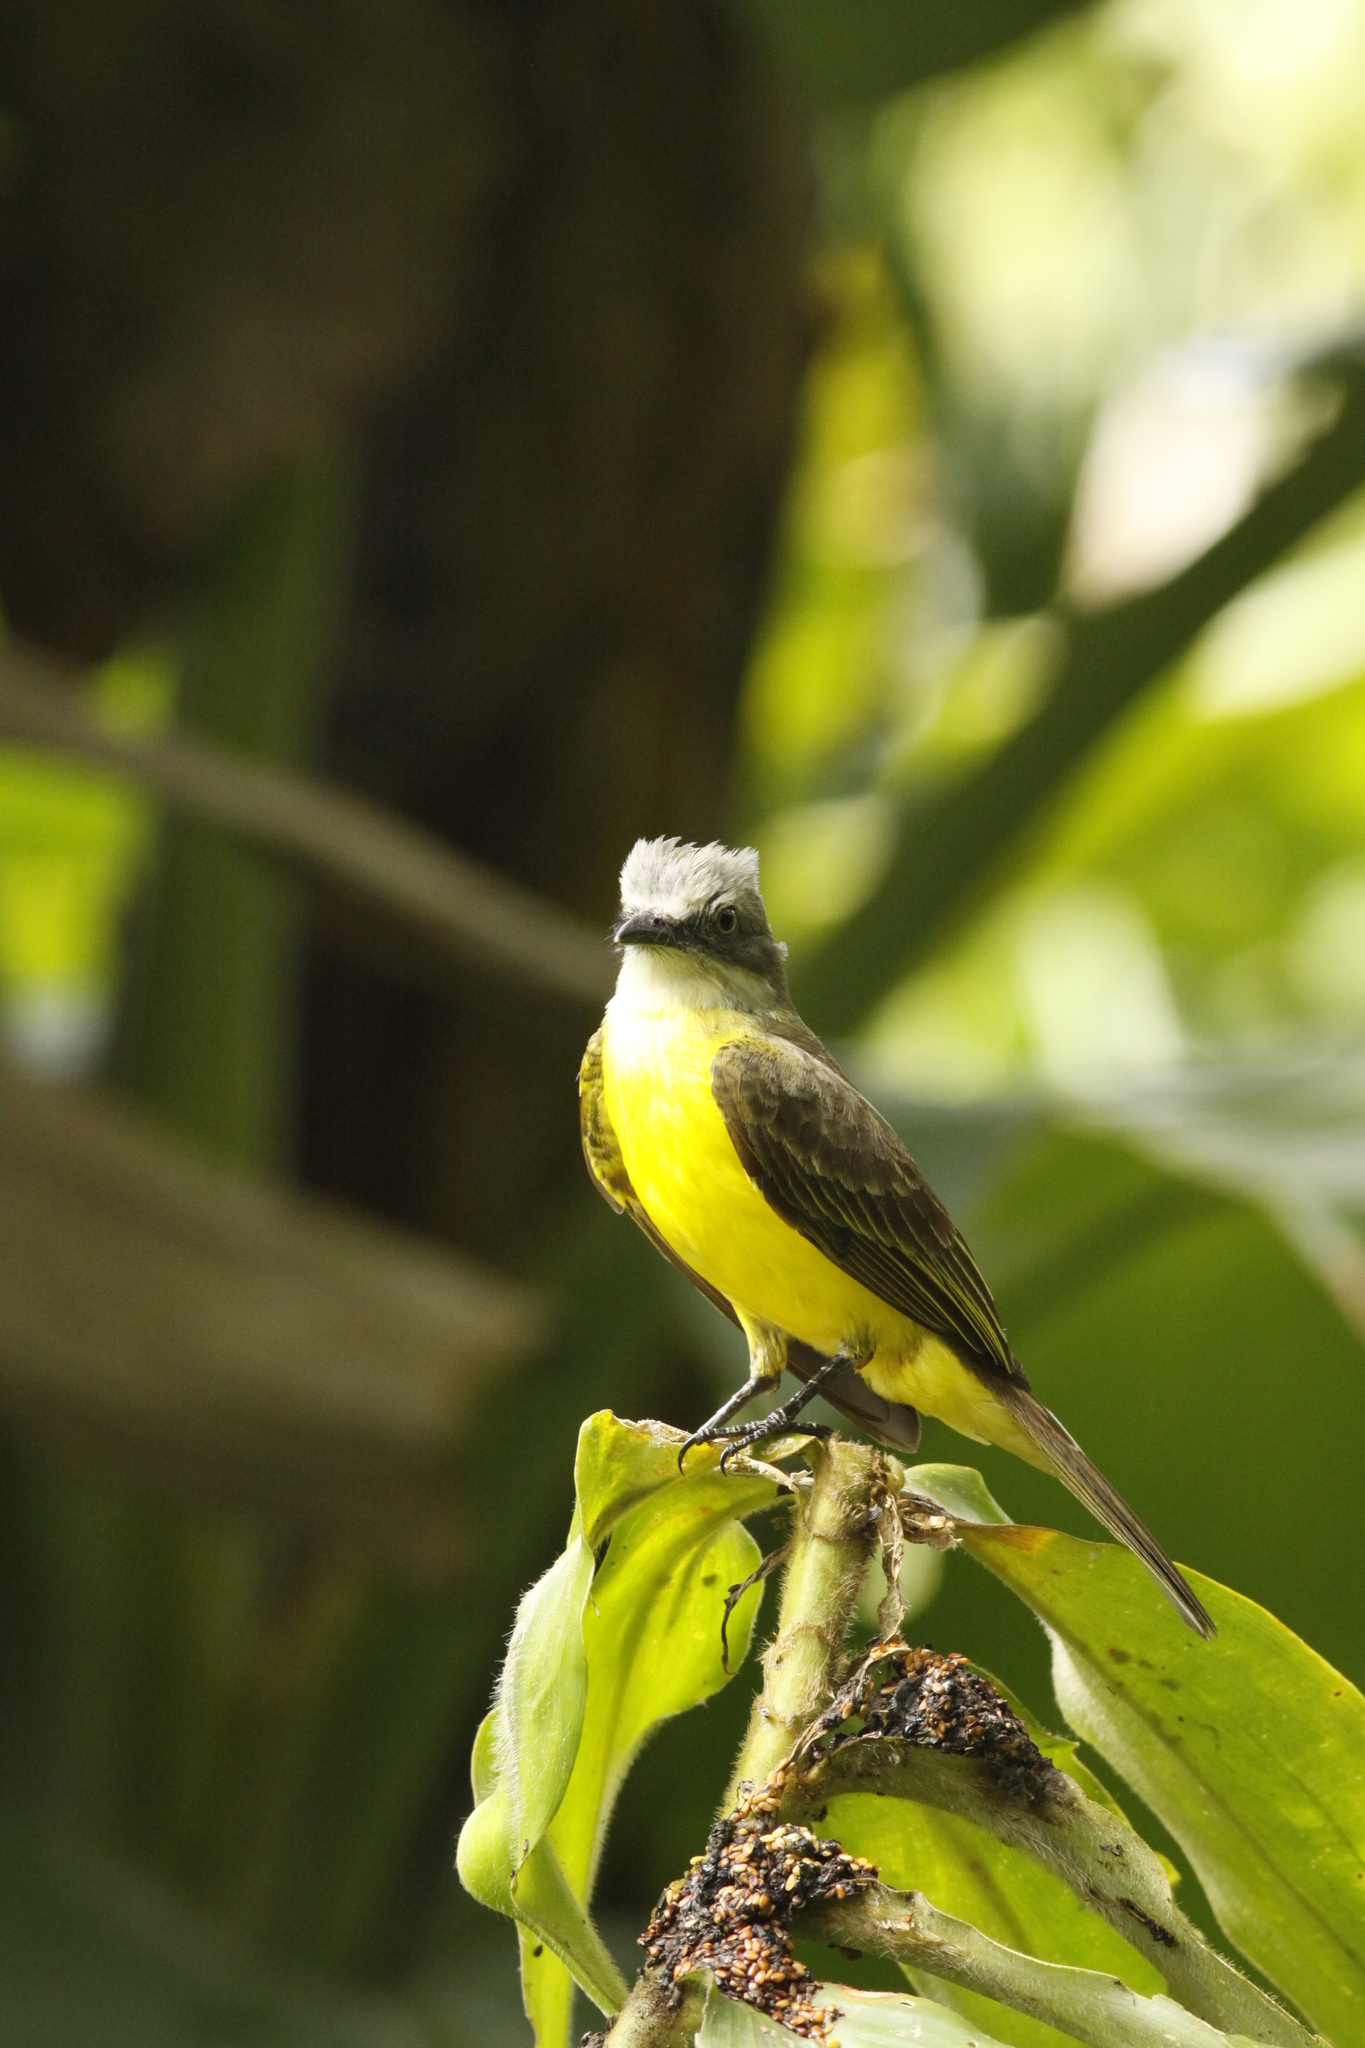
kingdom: Animalia
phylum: Chordata
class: Aves
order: Passeriformes
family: Tyrannidae
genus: Myiozetetes
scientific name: Myiozetetes granadensis
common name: Gray-capped flycatcher
